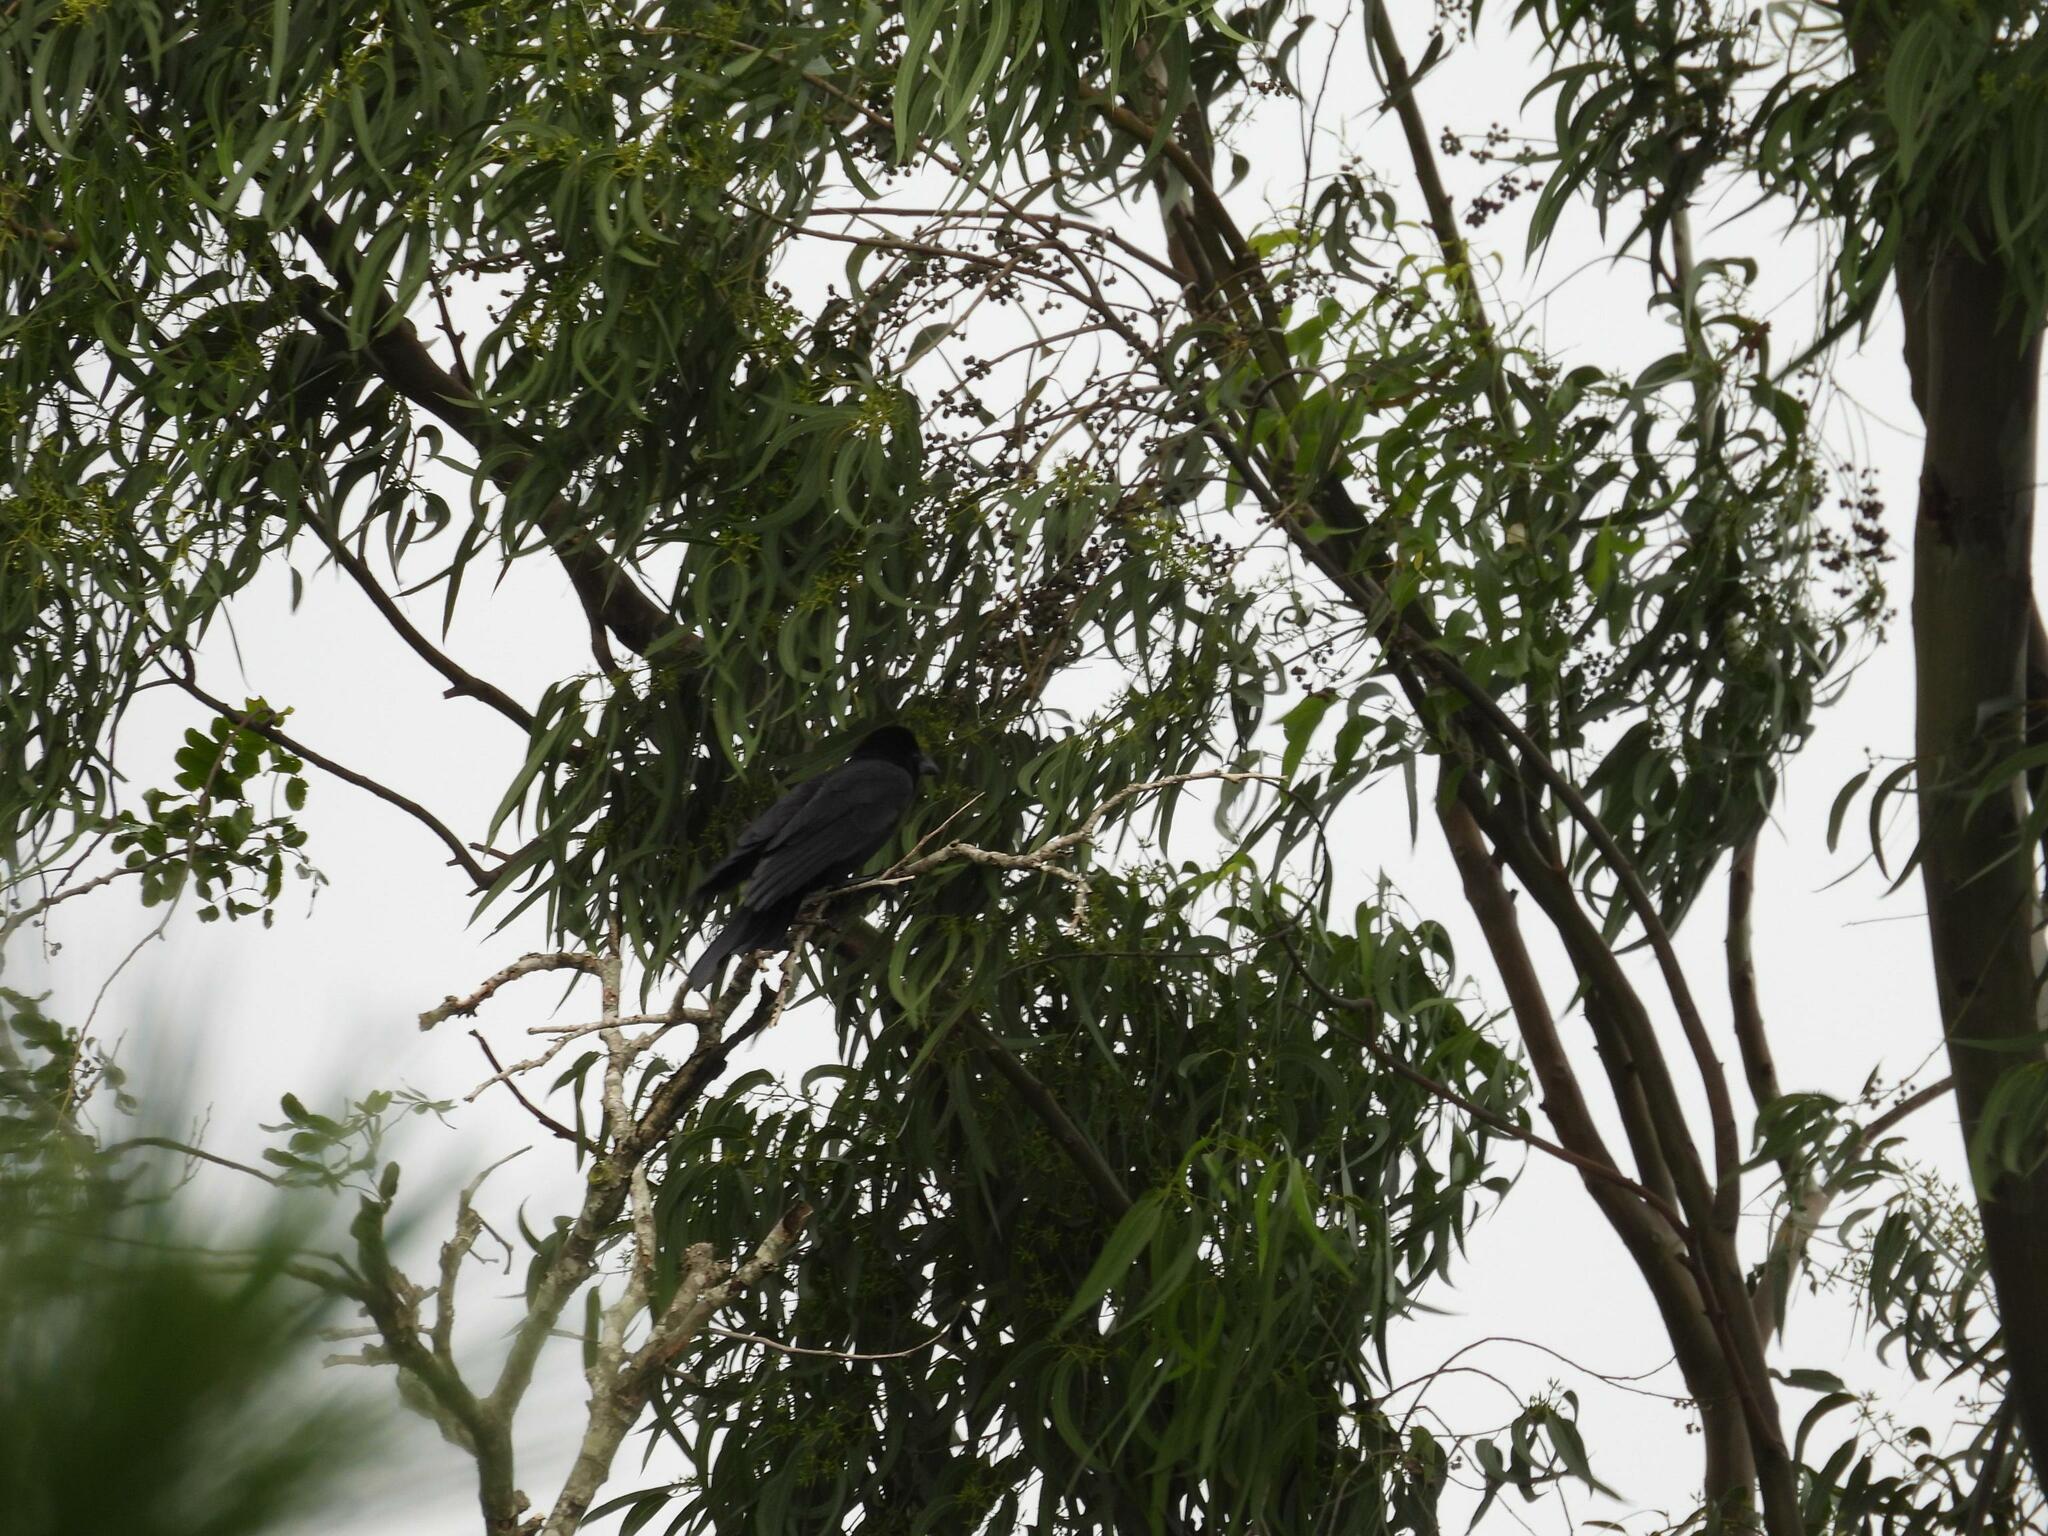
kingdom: Animalia
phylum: Chordata
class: Aves
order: Passeriformes
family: Corvidae
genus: Corvus
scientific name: Corvus macrorhynchos
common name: Large-billed crow
